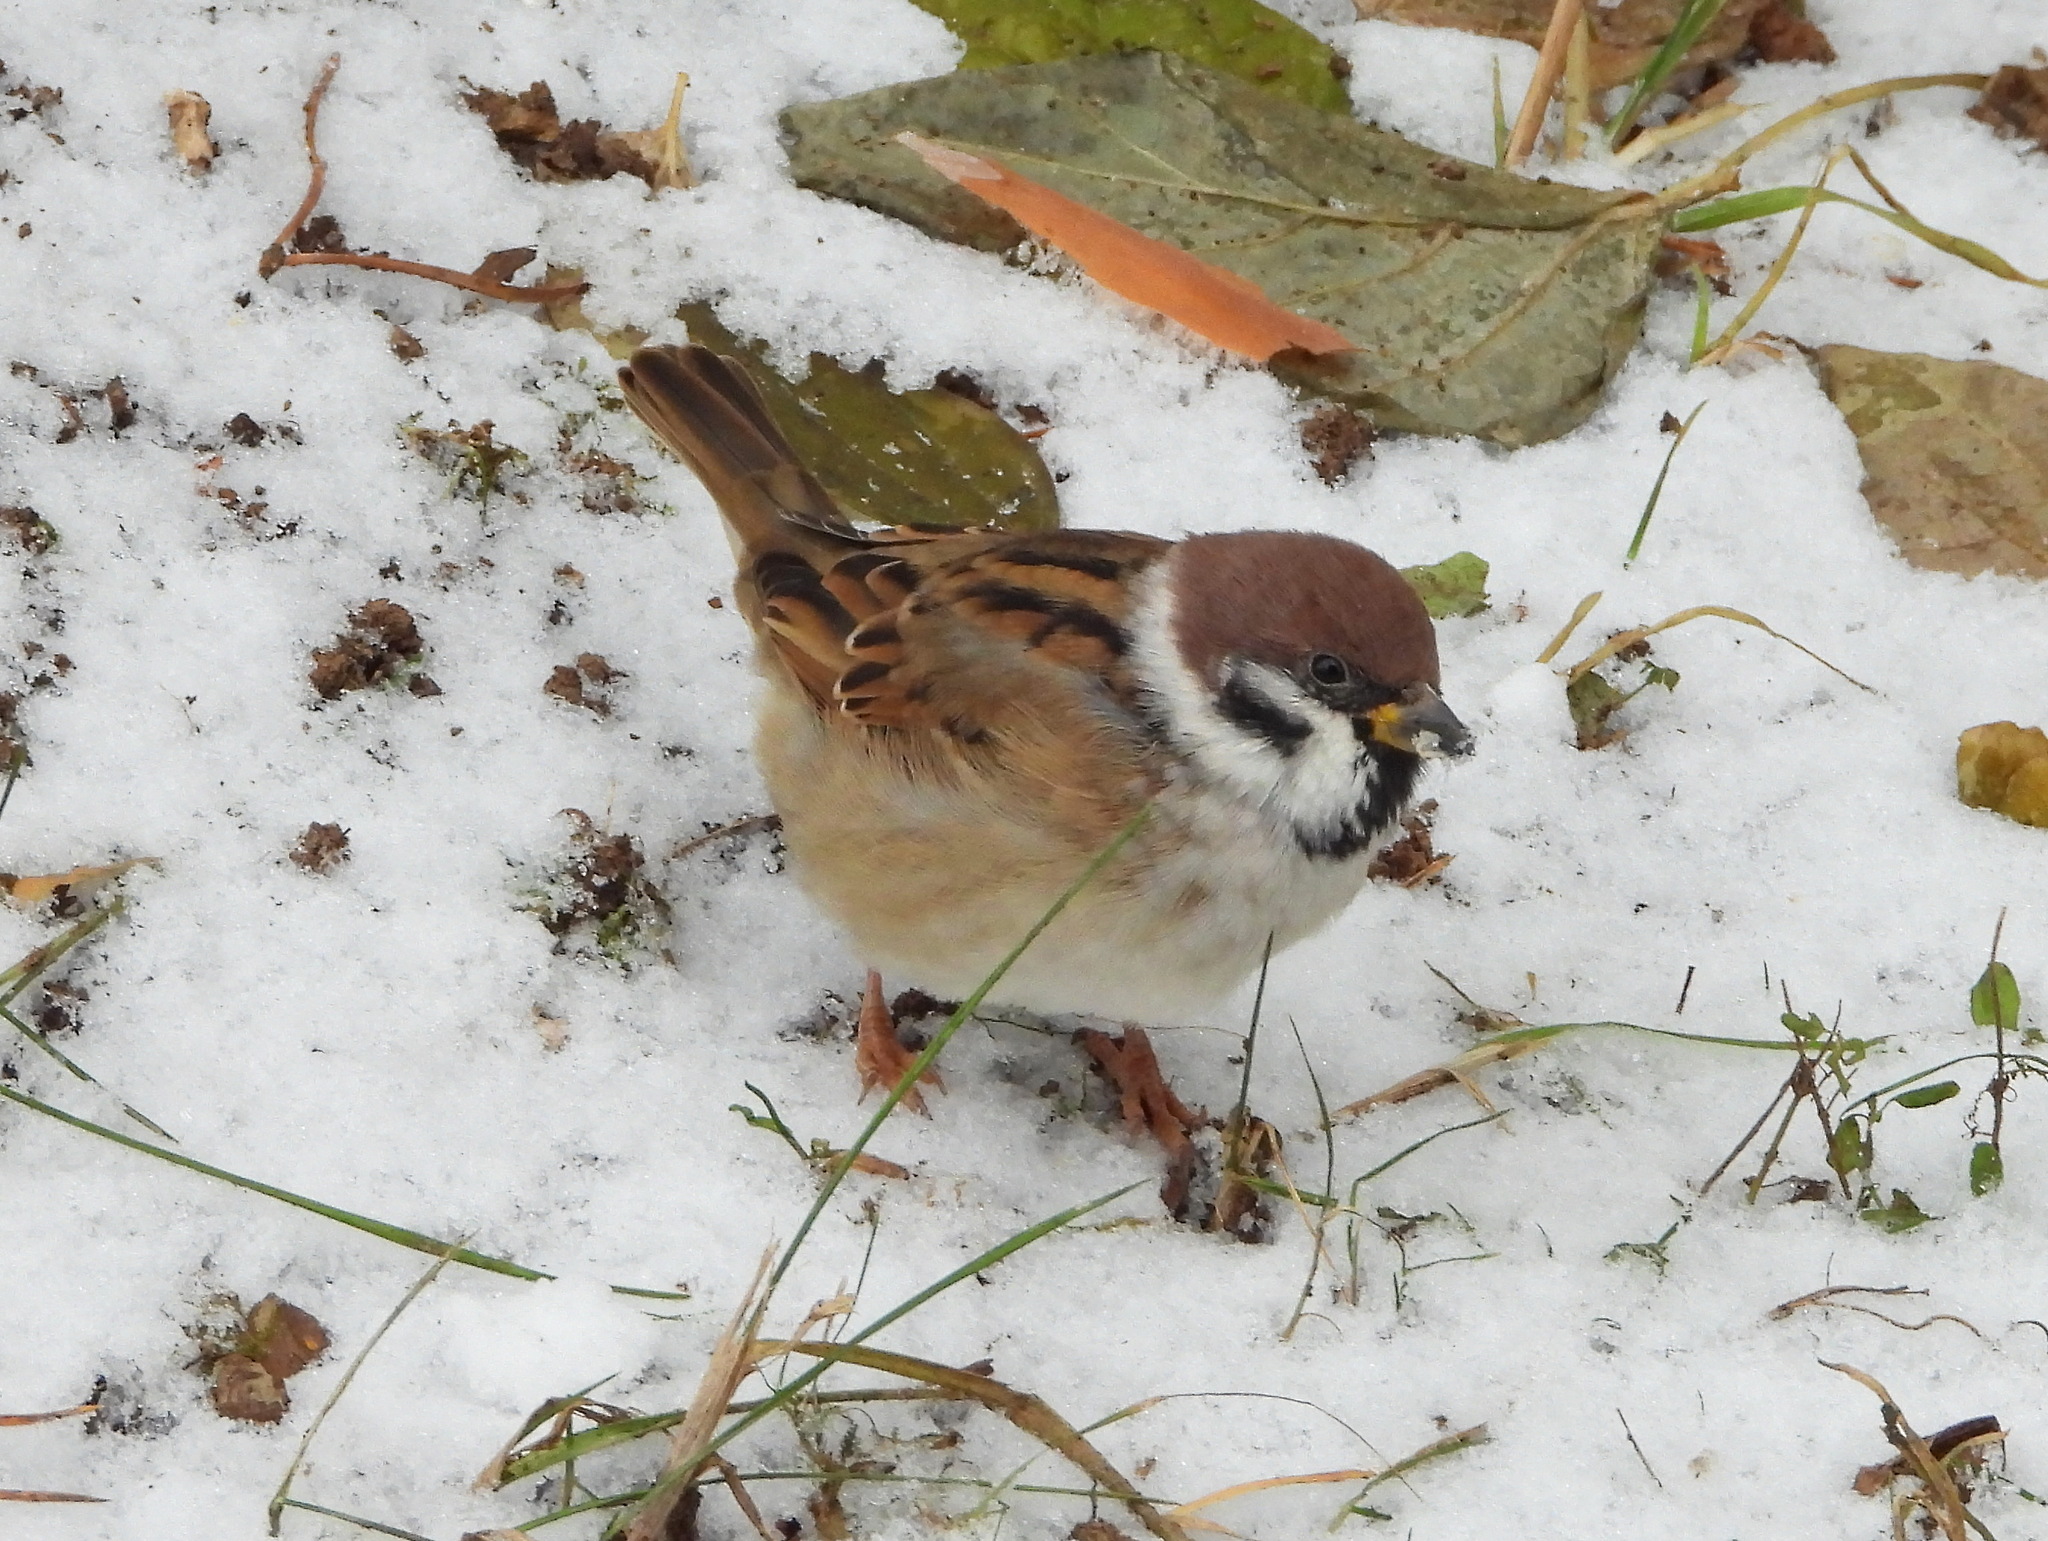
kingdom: Animalia
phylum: Chordata
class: Aves
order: Passeriformes
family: Passeridae
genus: Passer
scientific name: Passer montanus
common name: Eurasian tree sparrow
